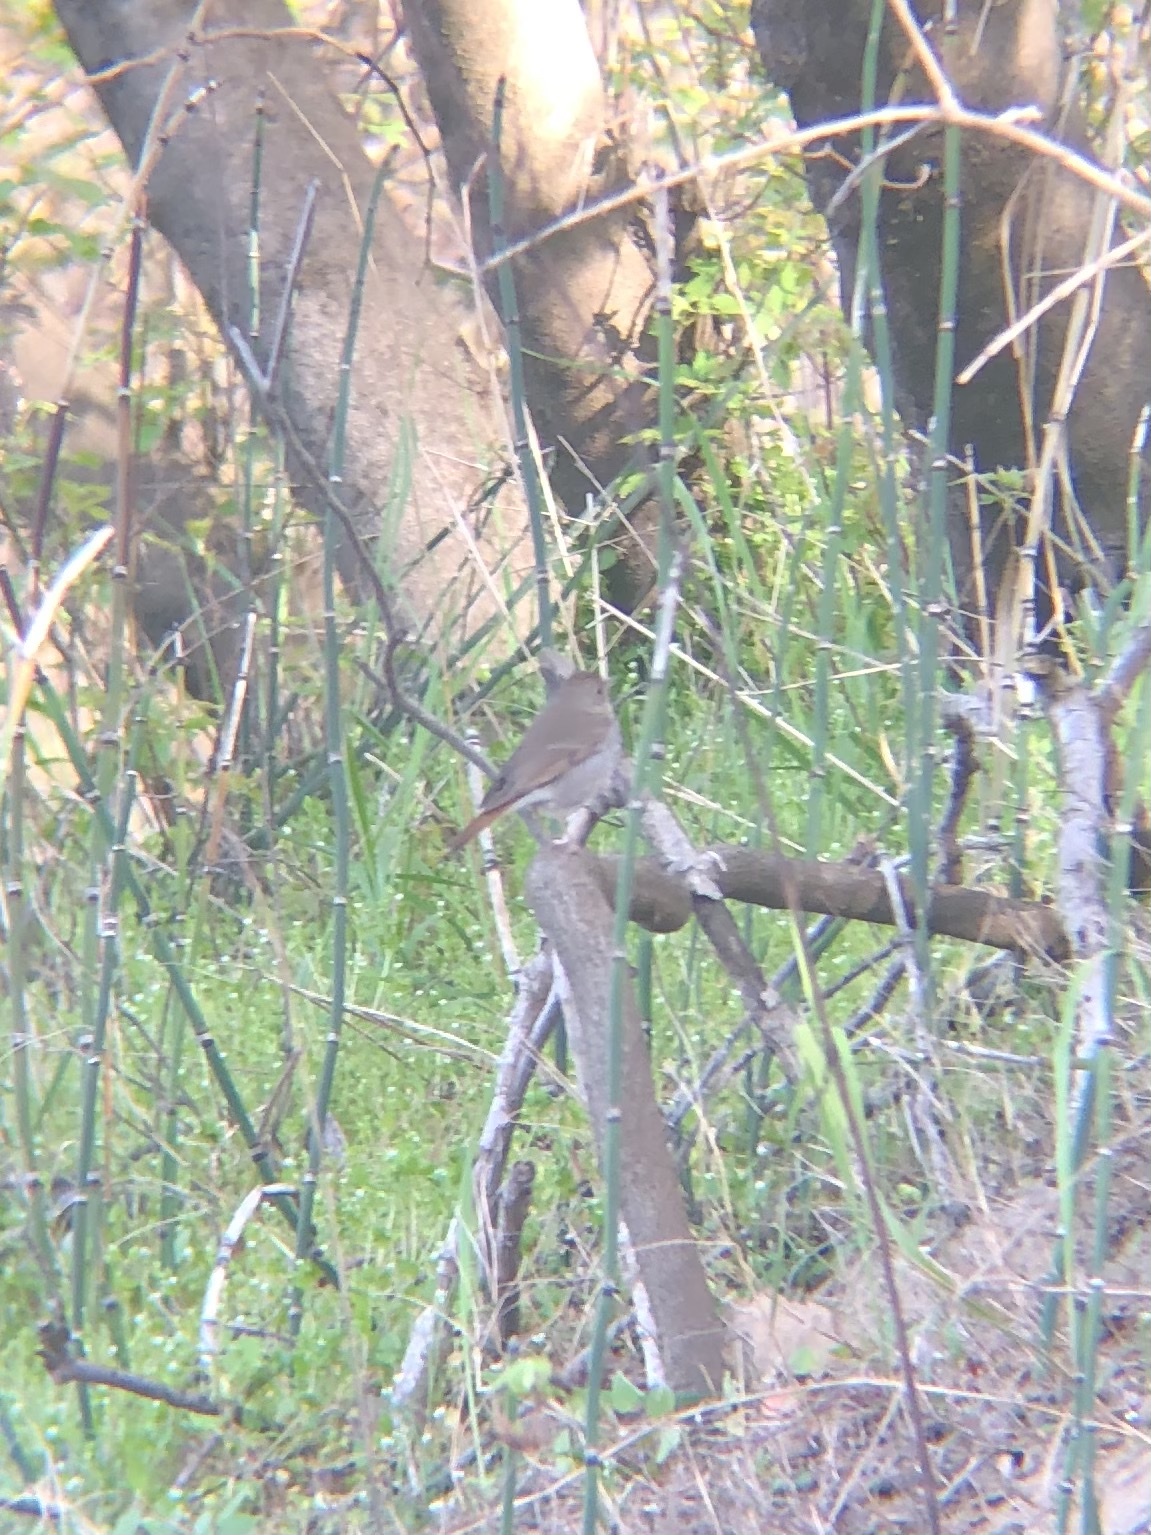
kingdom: Animalia
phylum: Chordata
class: Aves
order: Passeriformes
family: Turdidae
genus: Catharus
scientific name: Catharus guttatus
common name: Hermit thrush
